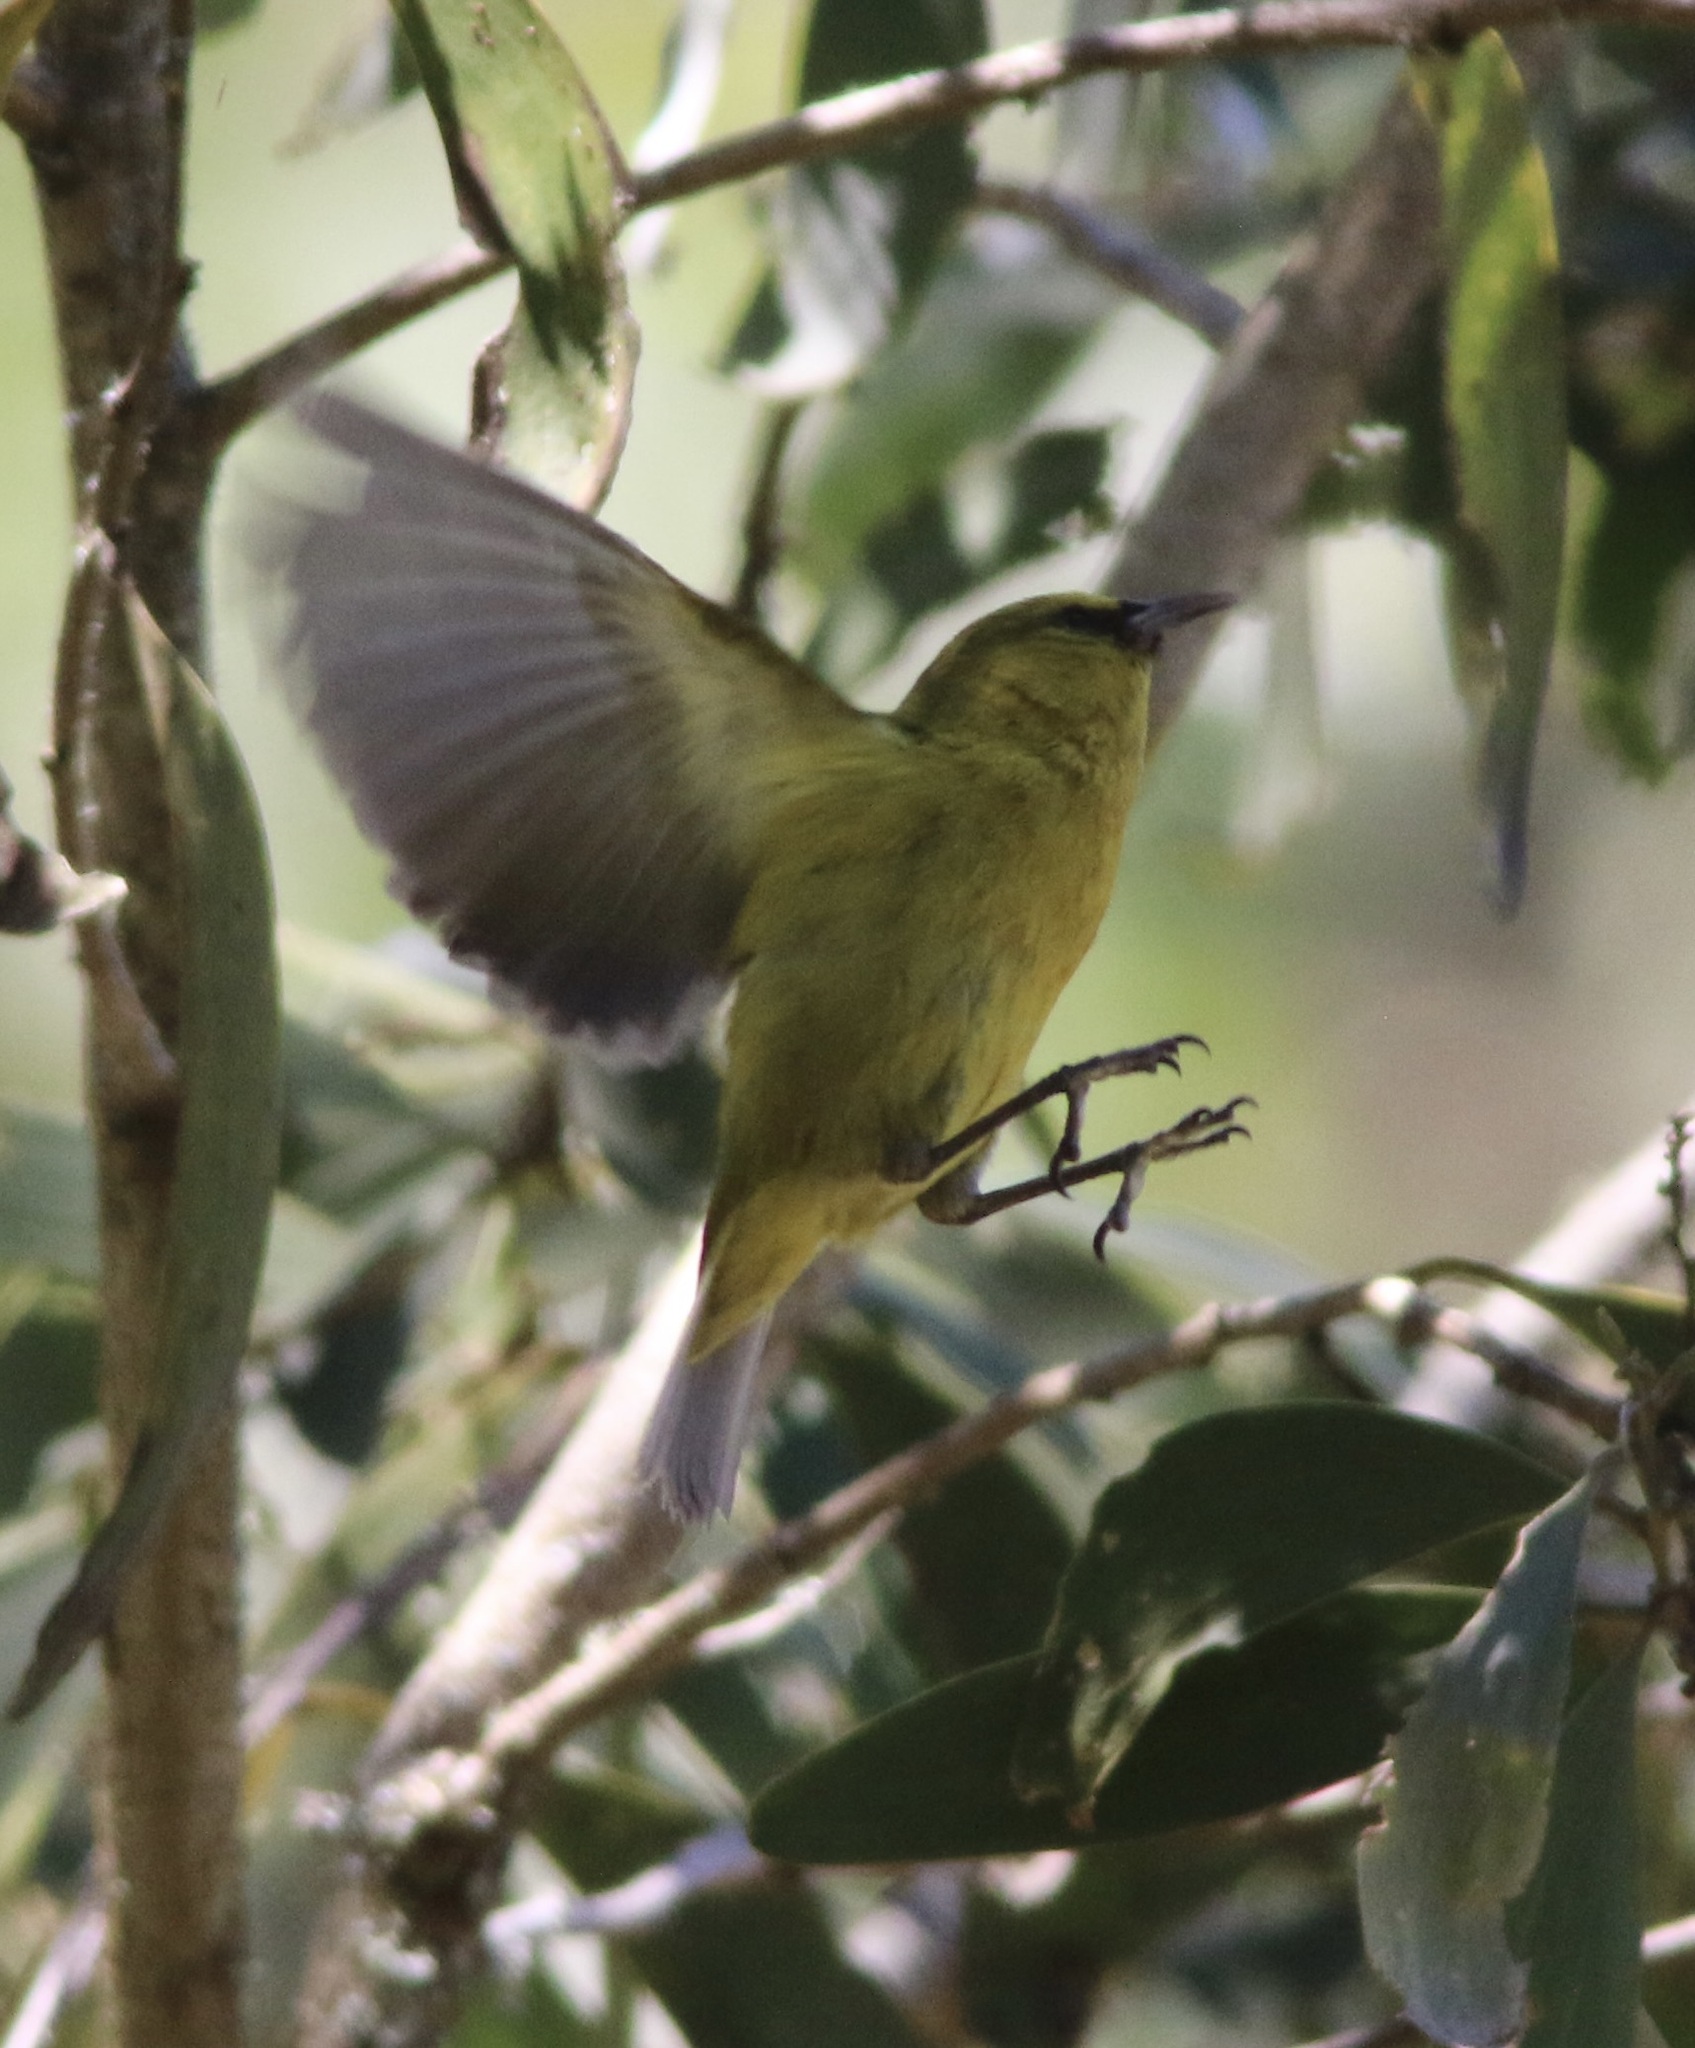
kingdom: Animalia
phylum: Chordata
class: Aves
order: Passeriformes
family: Fringillidae
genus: Chlorodrepanis
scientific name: Chlorodrepanis virens
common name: Hawaii amakihi
